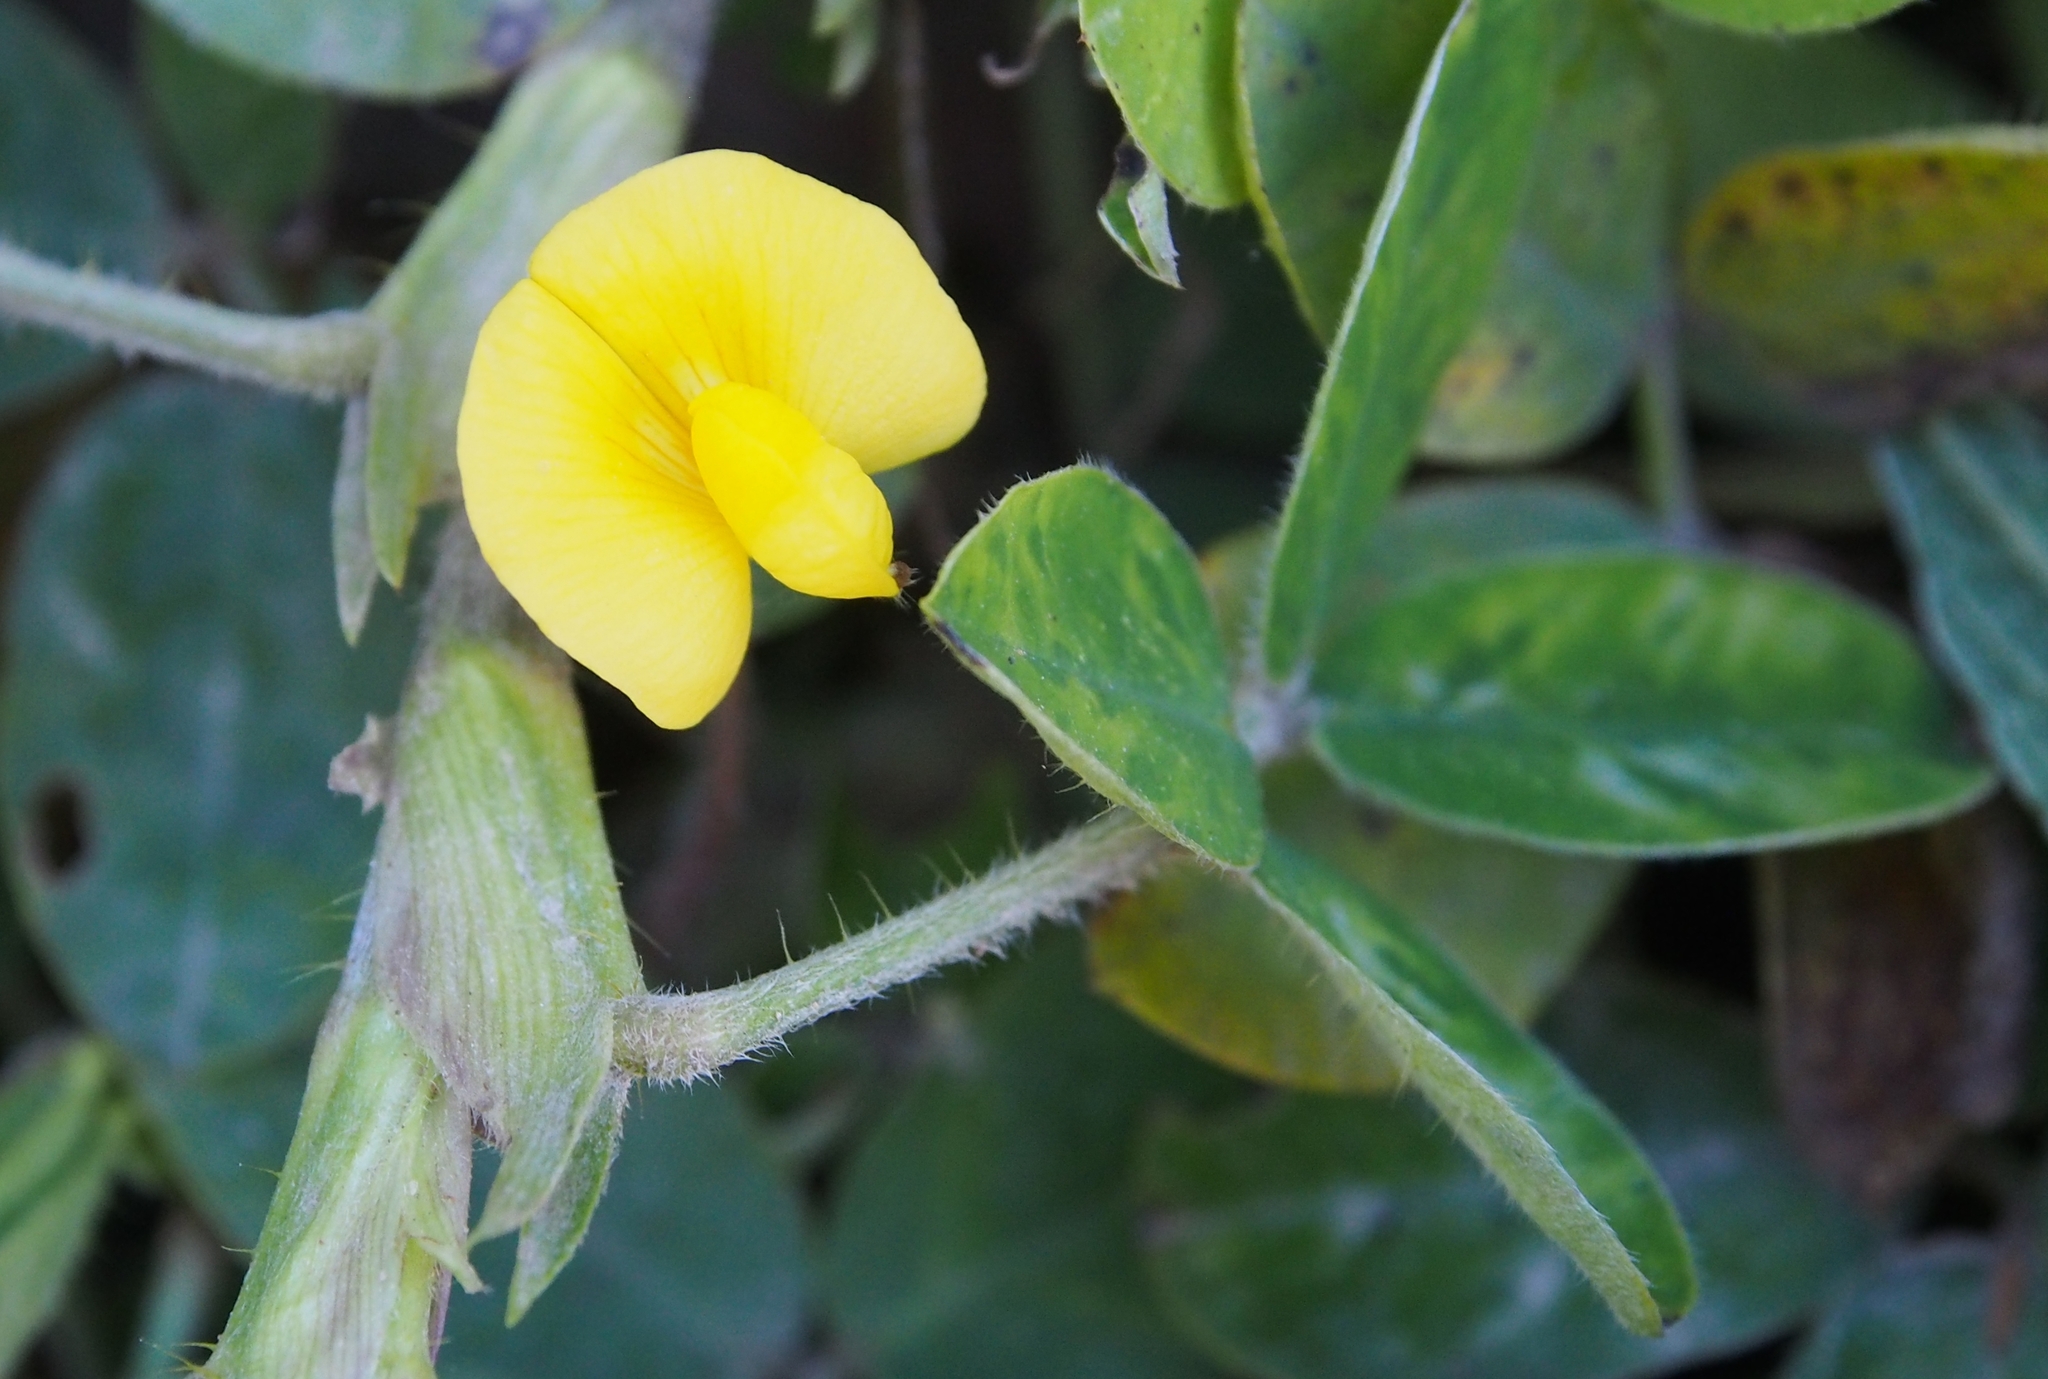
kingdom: Plantae
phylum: Tracheophyta
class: Magnoliopsida
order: Fabales
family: Fabaceae
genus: Arachis
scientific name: Arachis pintoi
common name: Pinto peanut
